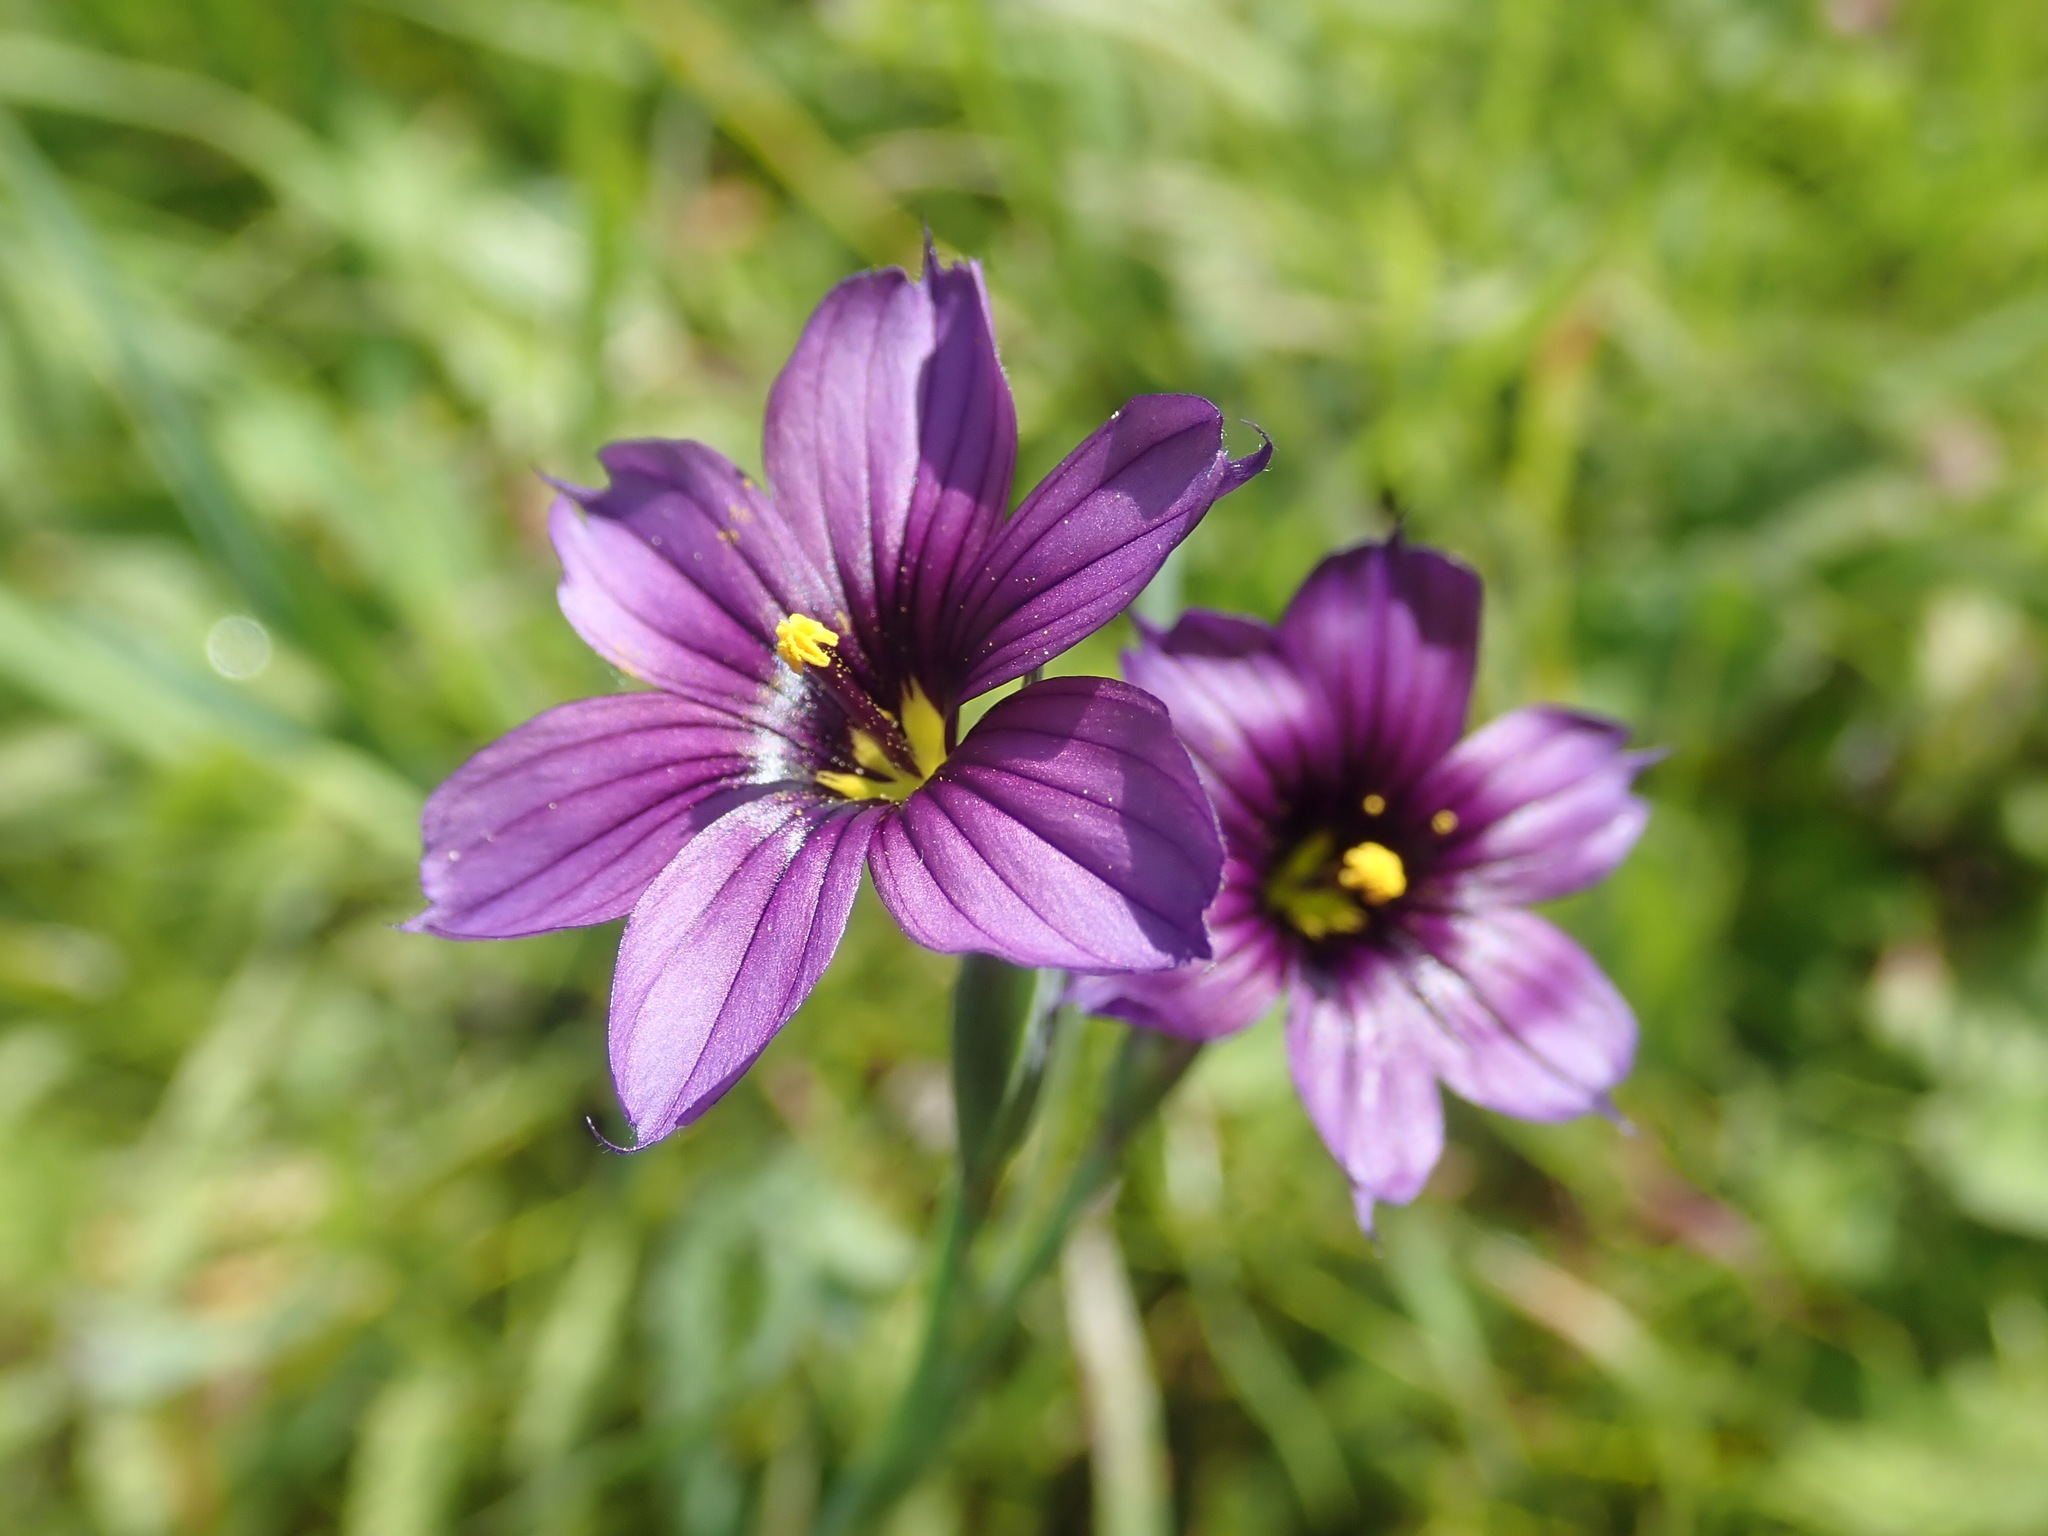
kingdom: Plantae
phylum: Tracheophyta
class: Liliopsida
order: Asparagales
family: Iridaceae
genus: Sisyrinchium
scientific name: Sisyrinchium bellum
